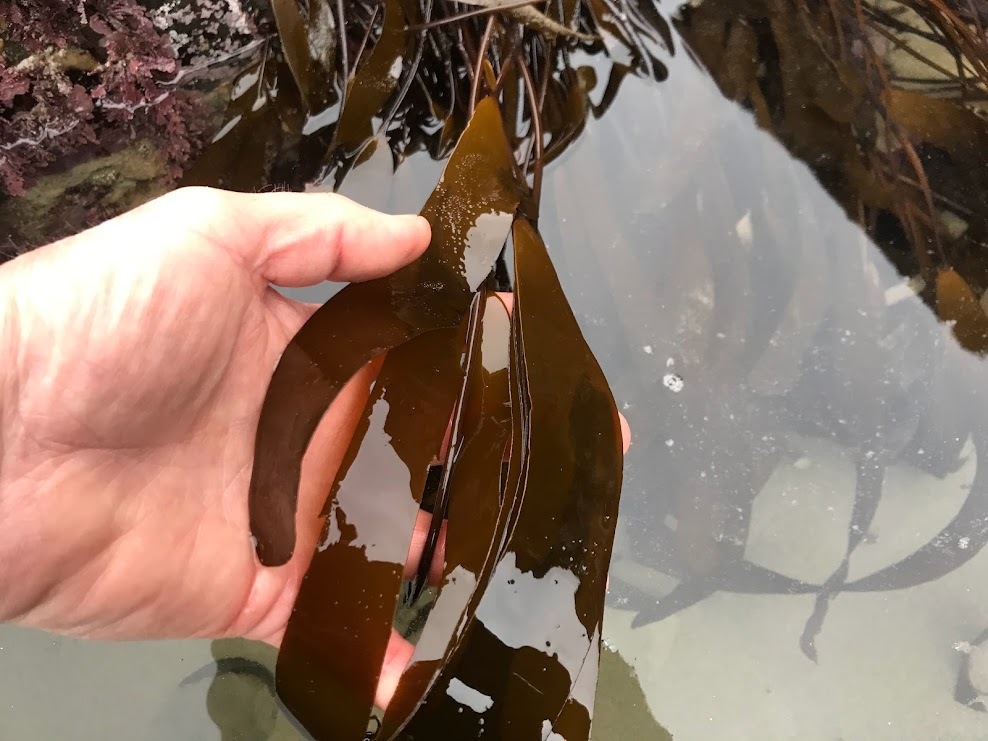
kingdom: Chromista
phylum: Ochrophyta
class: Phaeophyceae
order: Laminariales
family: Laminariaceae
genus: Laminaria
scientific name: Laminaria sinclairii
